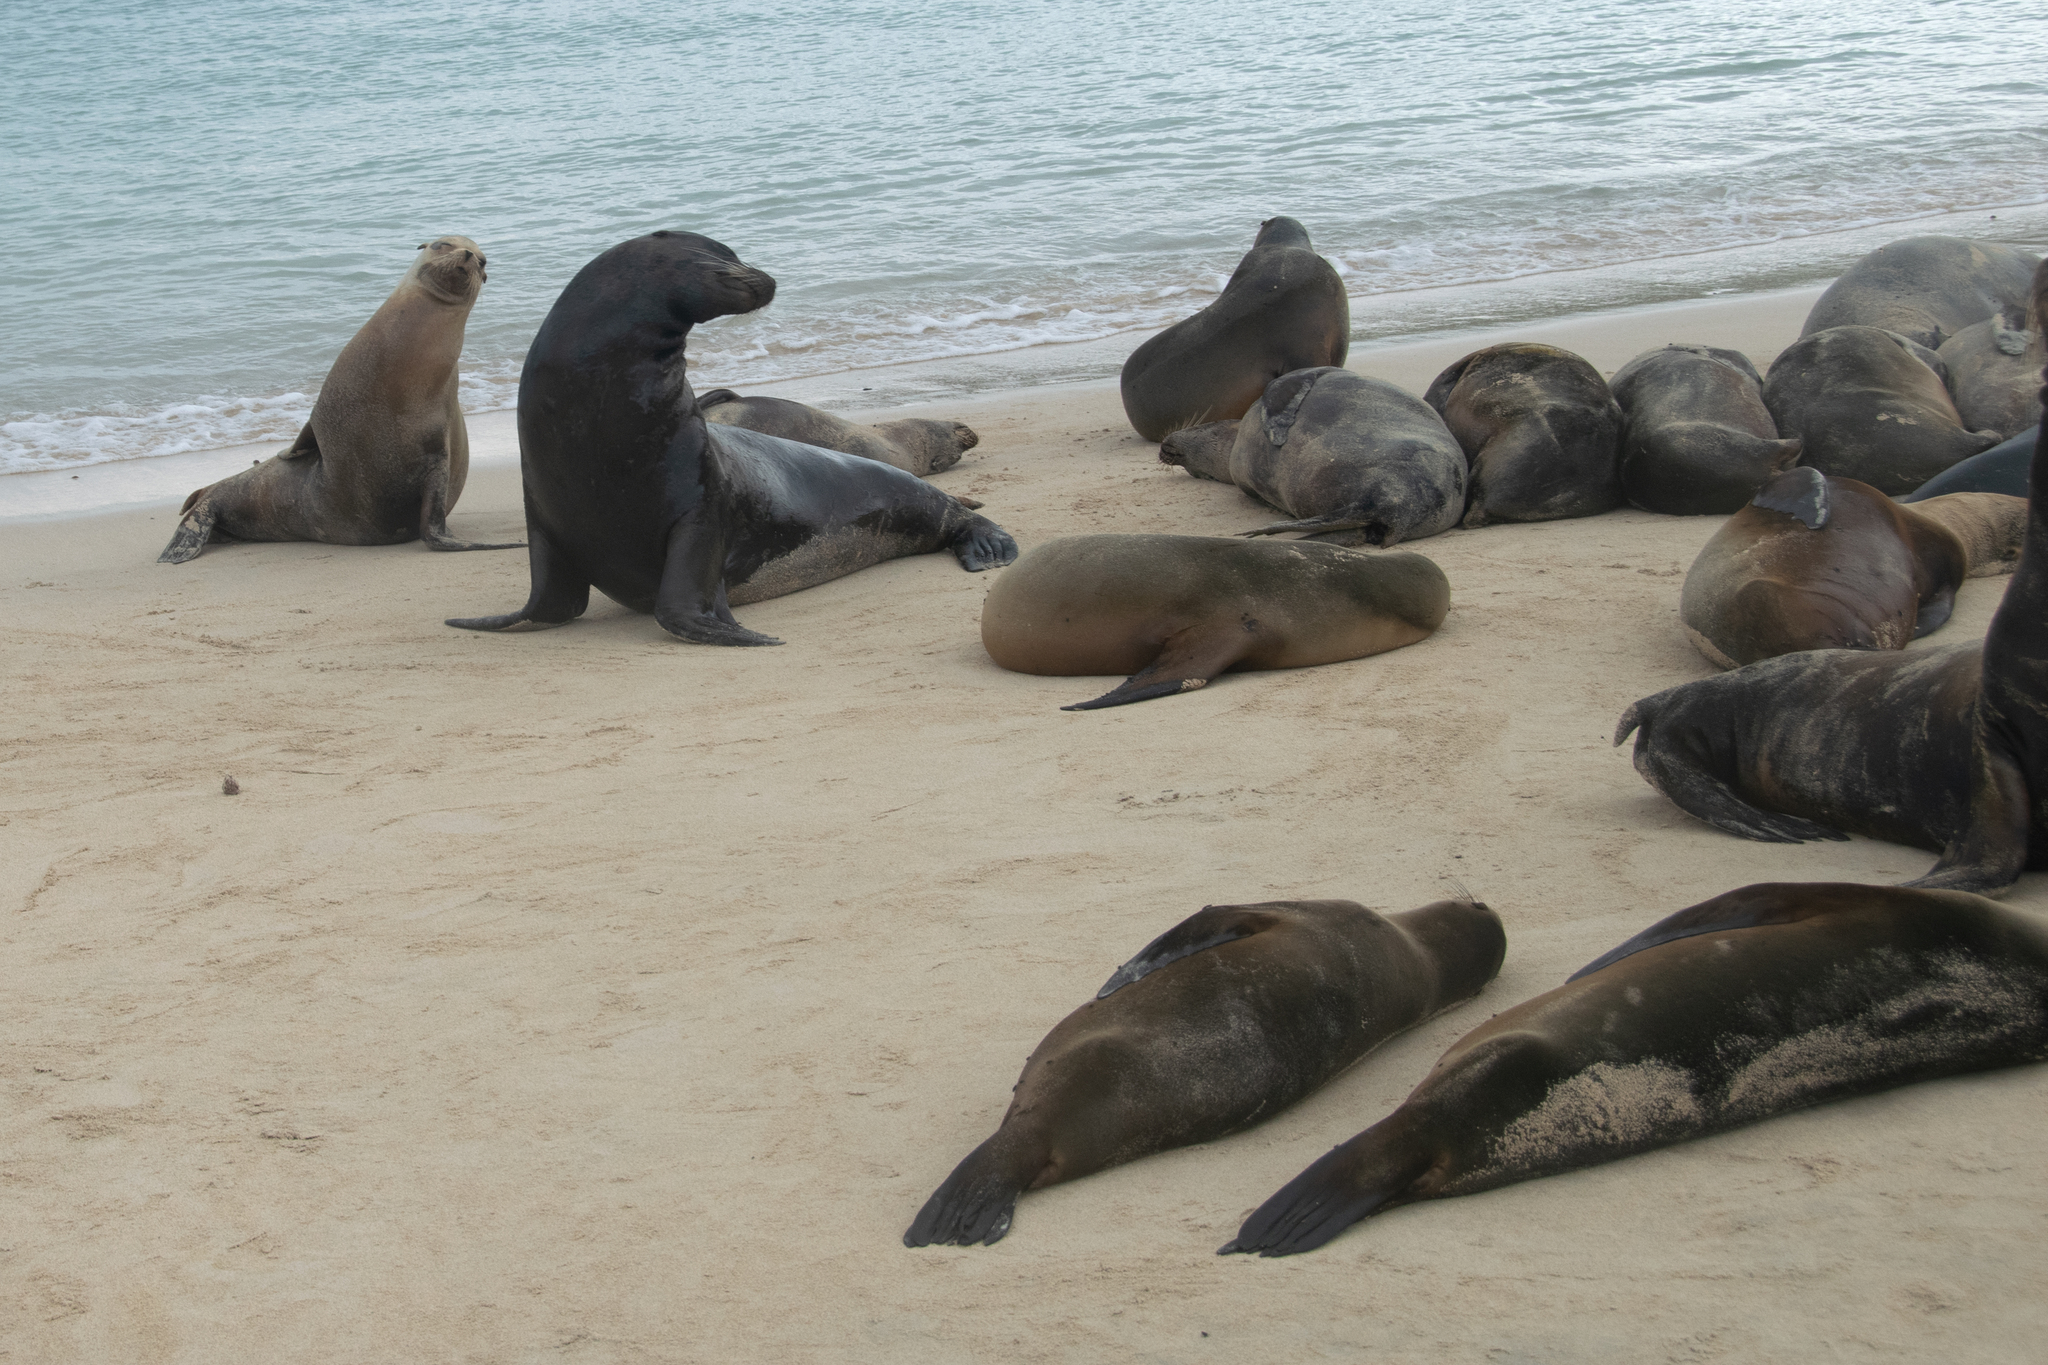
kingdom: Animalia
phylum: Chordata
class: Mammalia
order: Carnivora
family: Otariidae
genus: Zalophus
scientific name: Zalophus wollebaeki
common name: Galapagos sea lion
